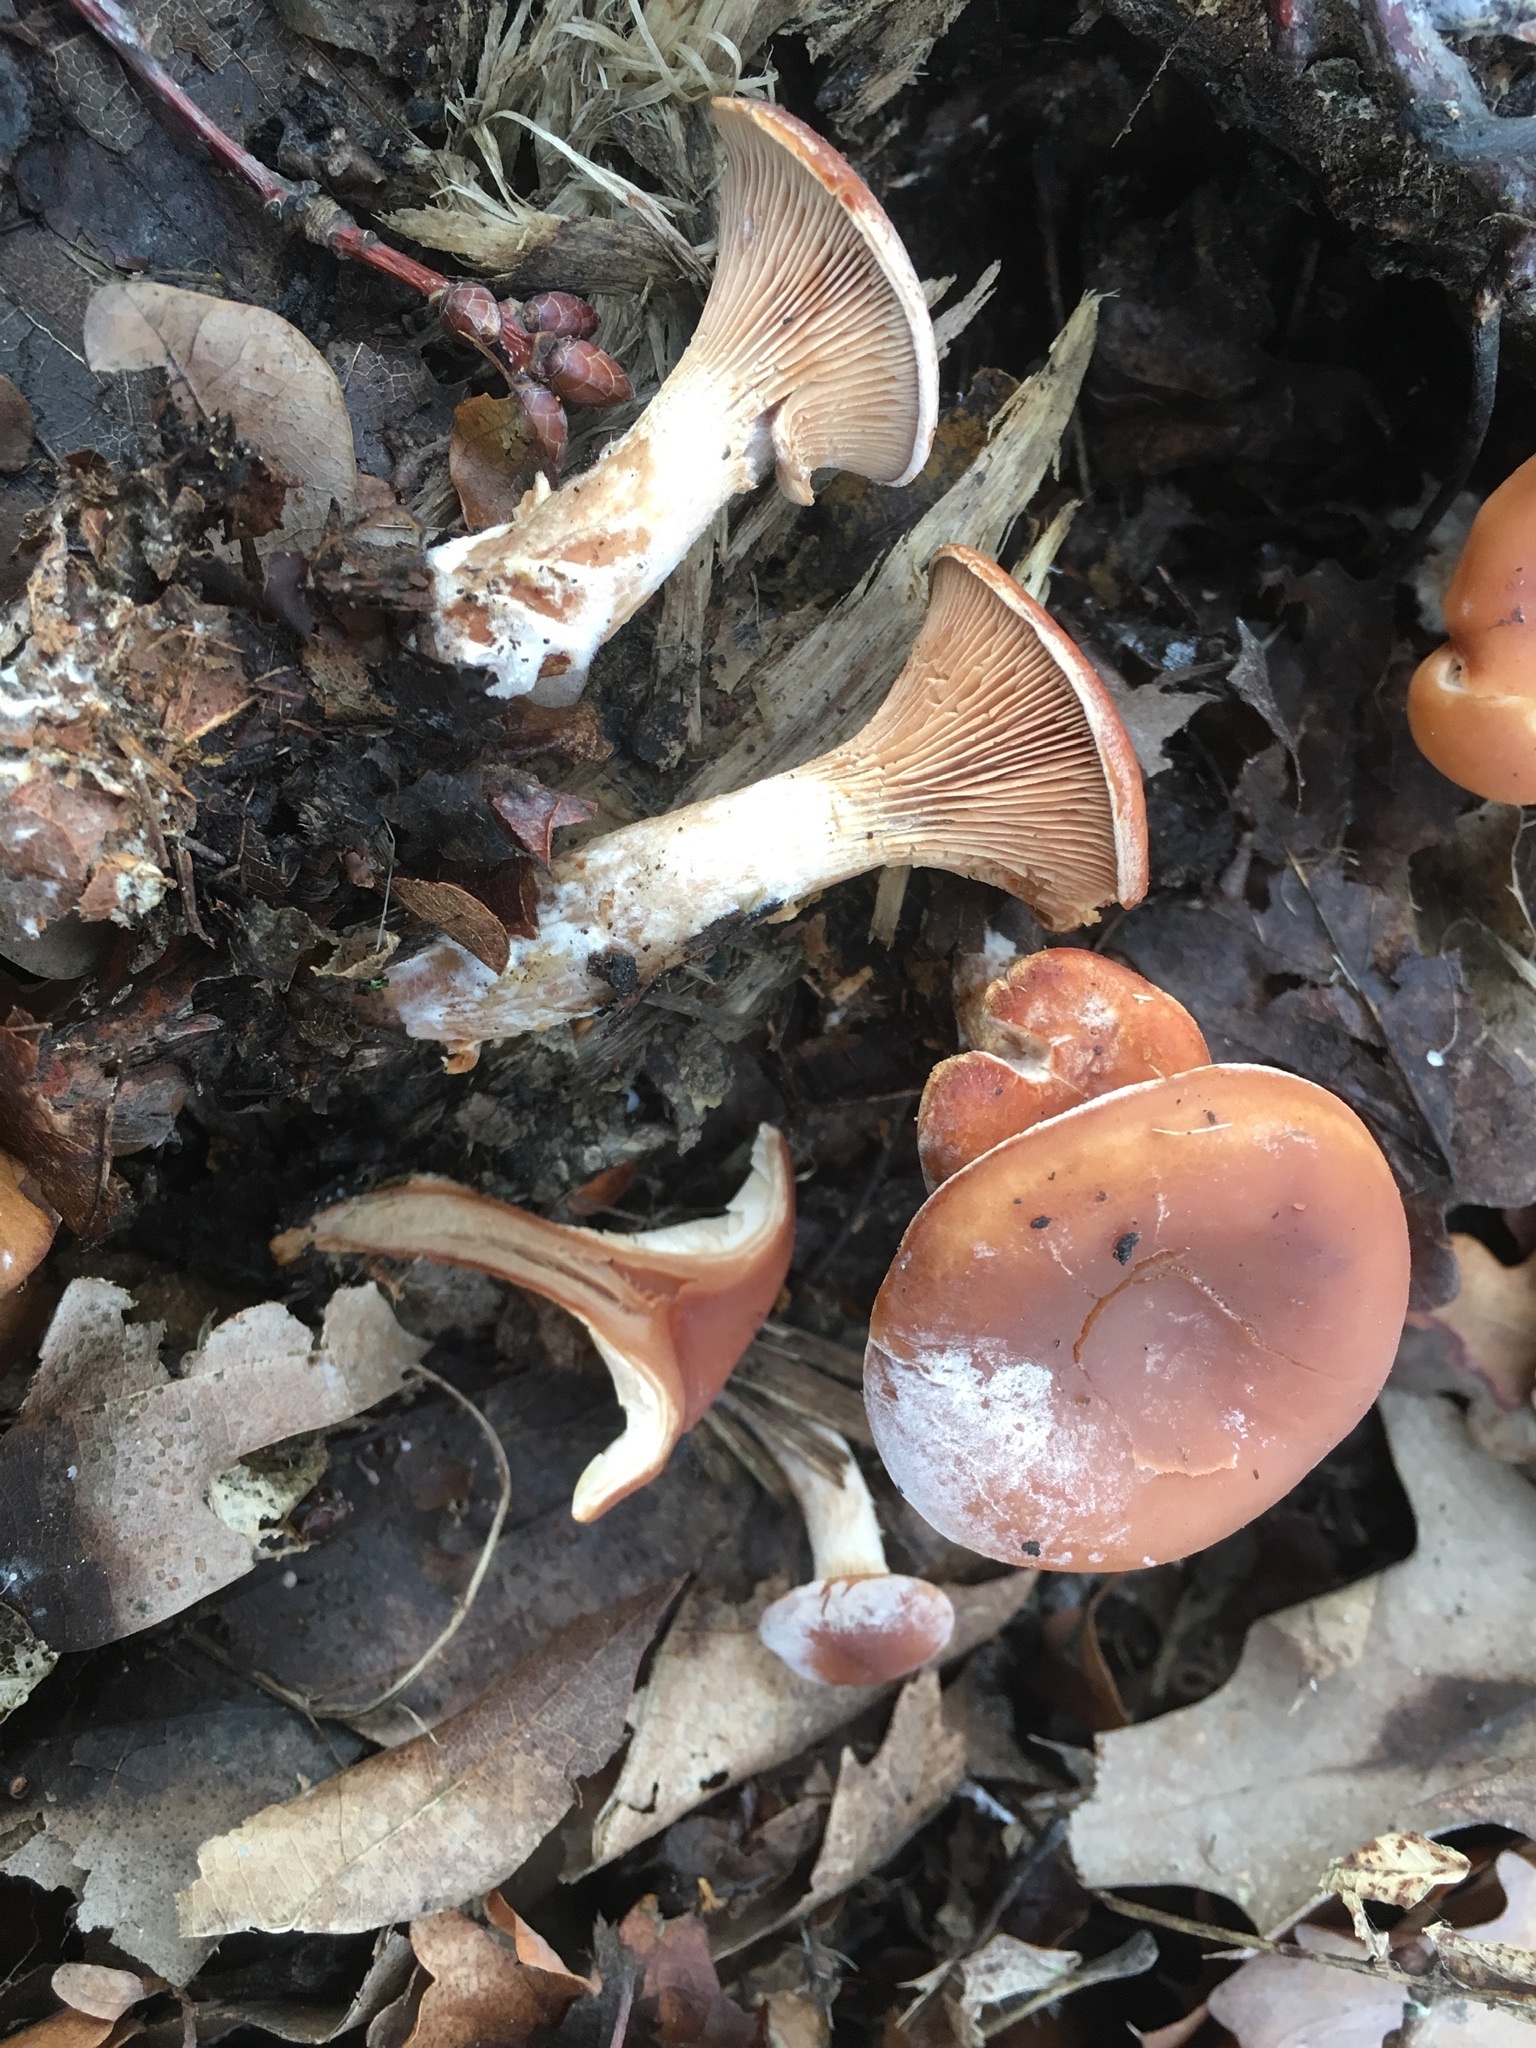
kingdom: Fungi
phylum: Basidiomycota
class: Agaricomycetes
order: Agaricales
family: Tricholomataceae
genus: Paralepista
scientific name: Paralepista flaccida
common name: Tawny funnel cap
